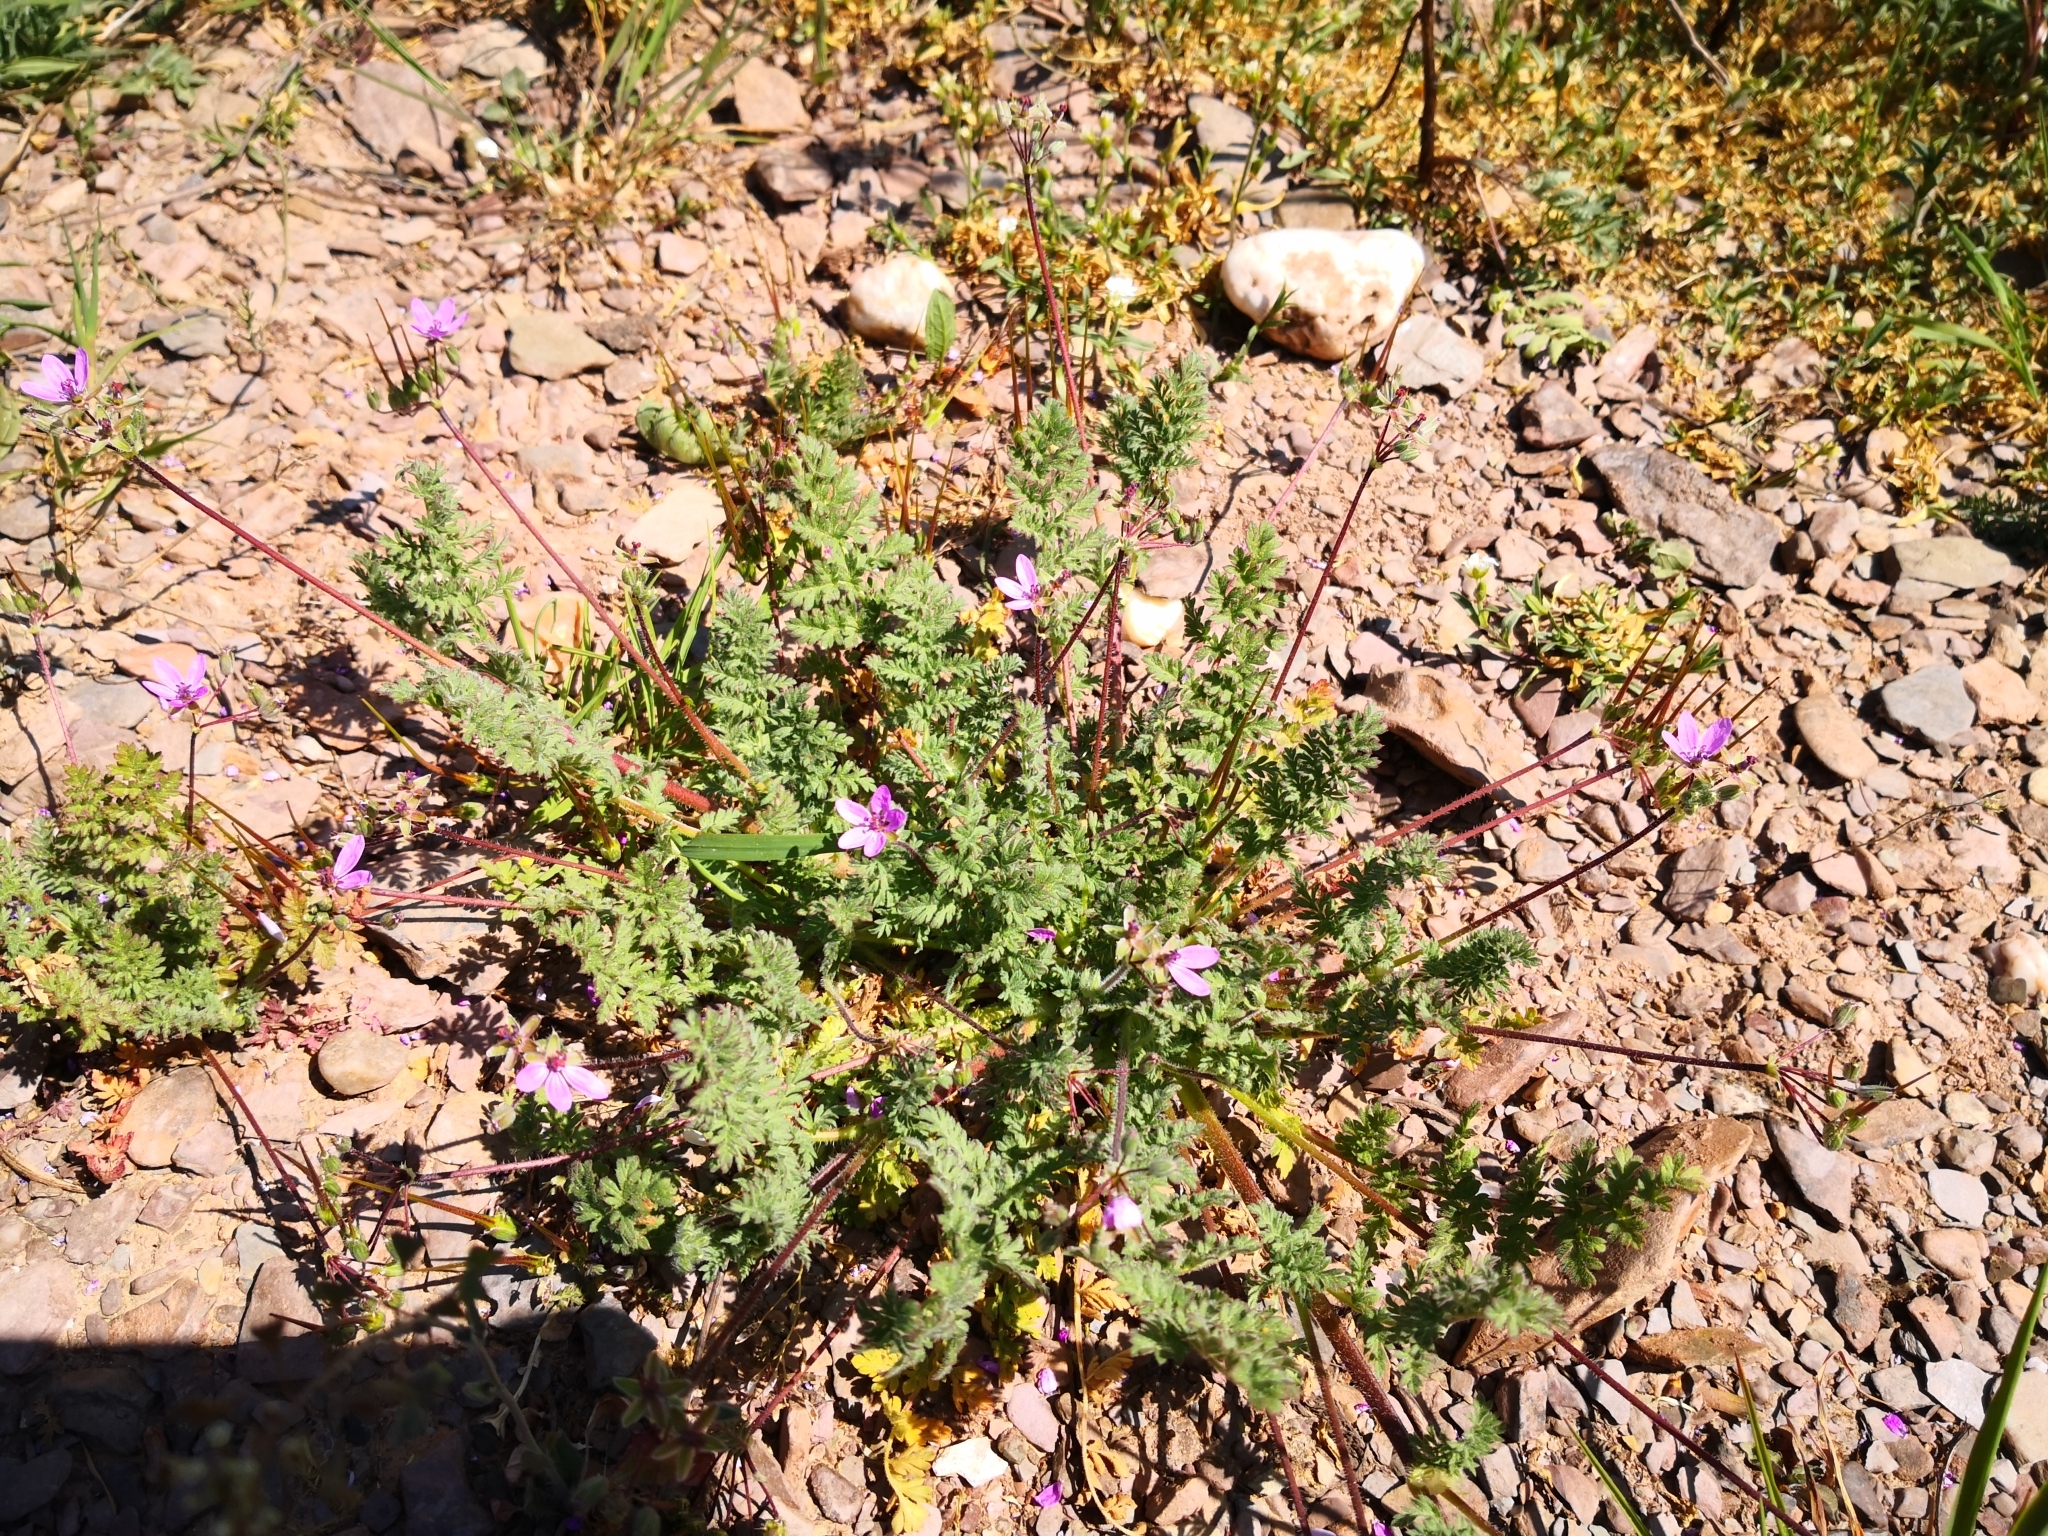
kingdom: Plantae
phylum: Tracheophyta
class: Magnoliopsida
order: Geraniales
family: Geraniaceae
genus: Erodium
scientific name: Erodium cicutarium
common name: Common stork's-bill
